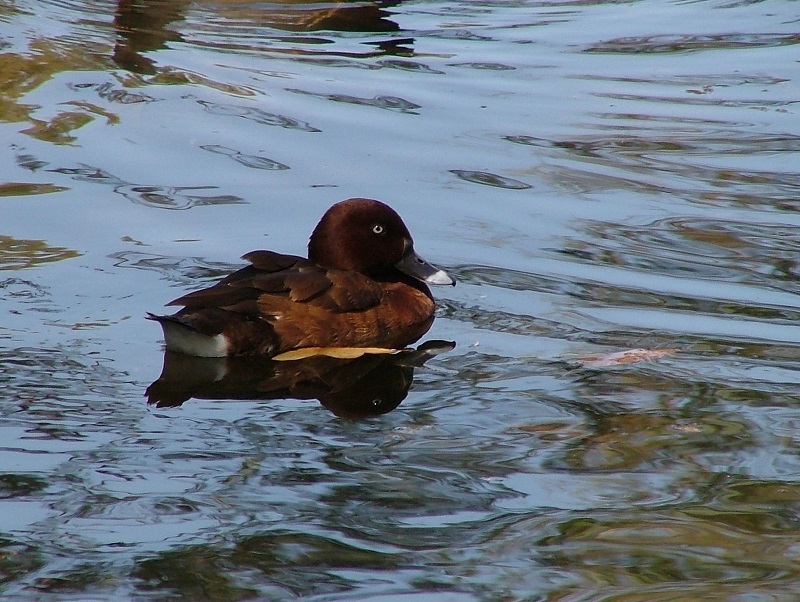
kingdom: Animalia
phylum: Chordata
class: Aves
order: Anseriformes
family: Anatidae
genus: Aythya
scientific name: Aythya australis
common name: Hardhead
